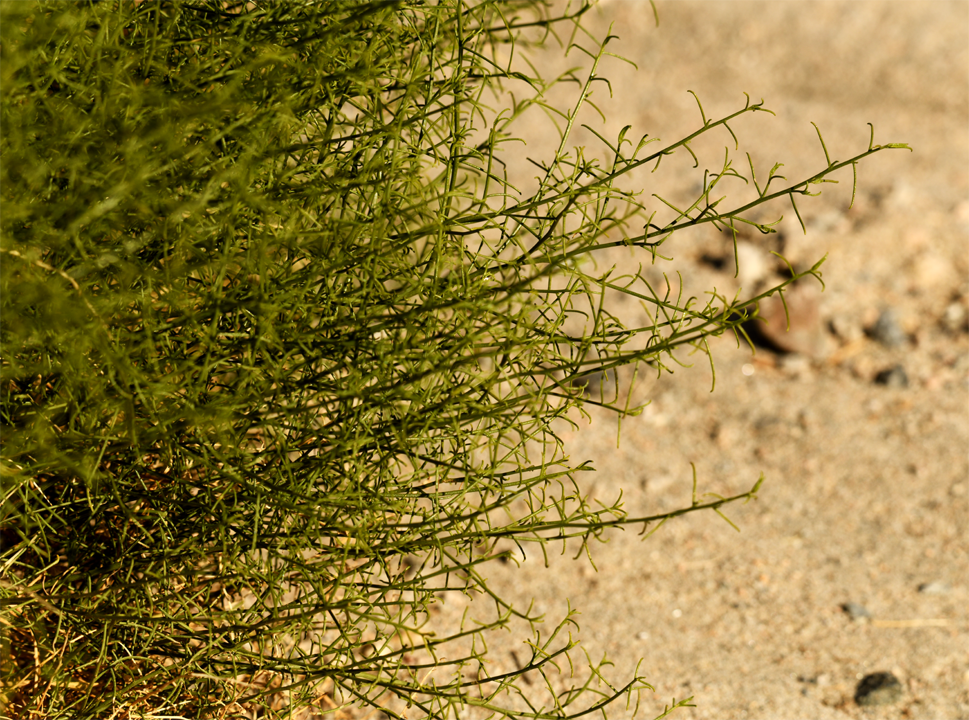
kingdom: Plantae
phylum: Tracheophyta
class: Magnoliopsida
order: Asterales
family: Asteraceae
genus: Ambrosia
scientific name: Ambrosia salsola
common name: Burrobrush
